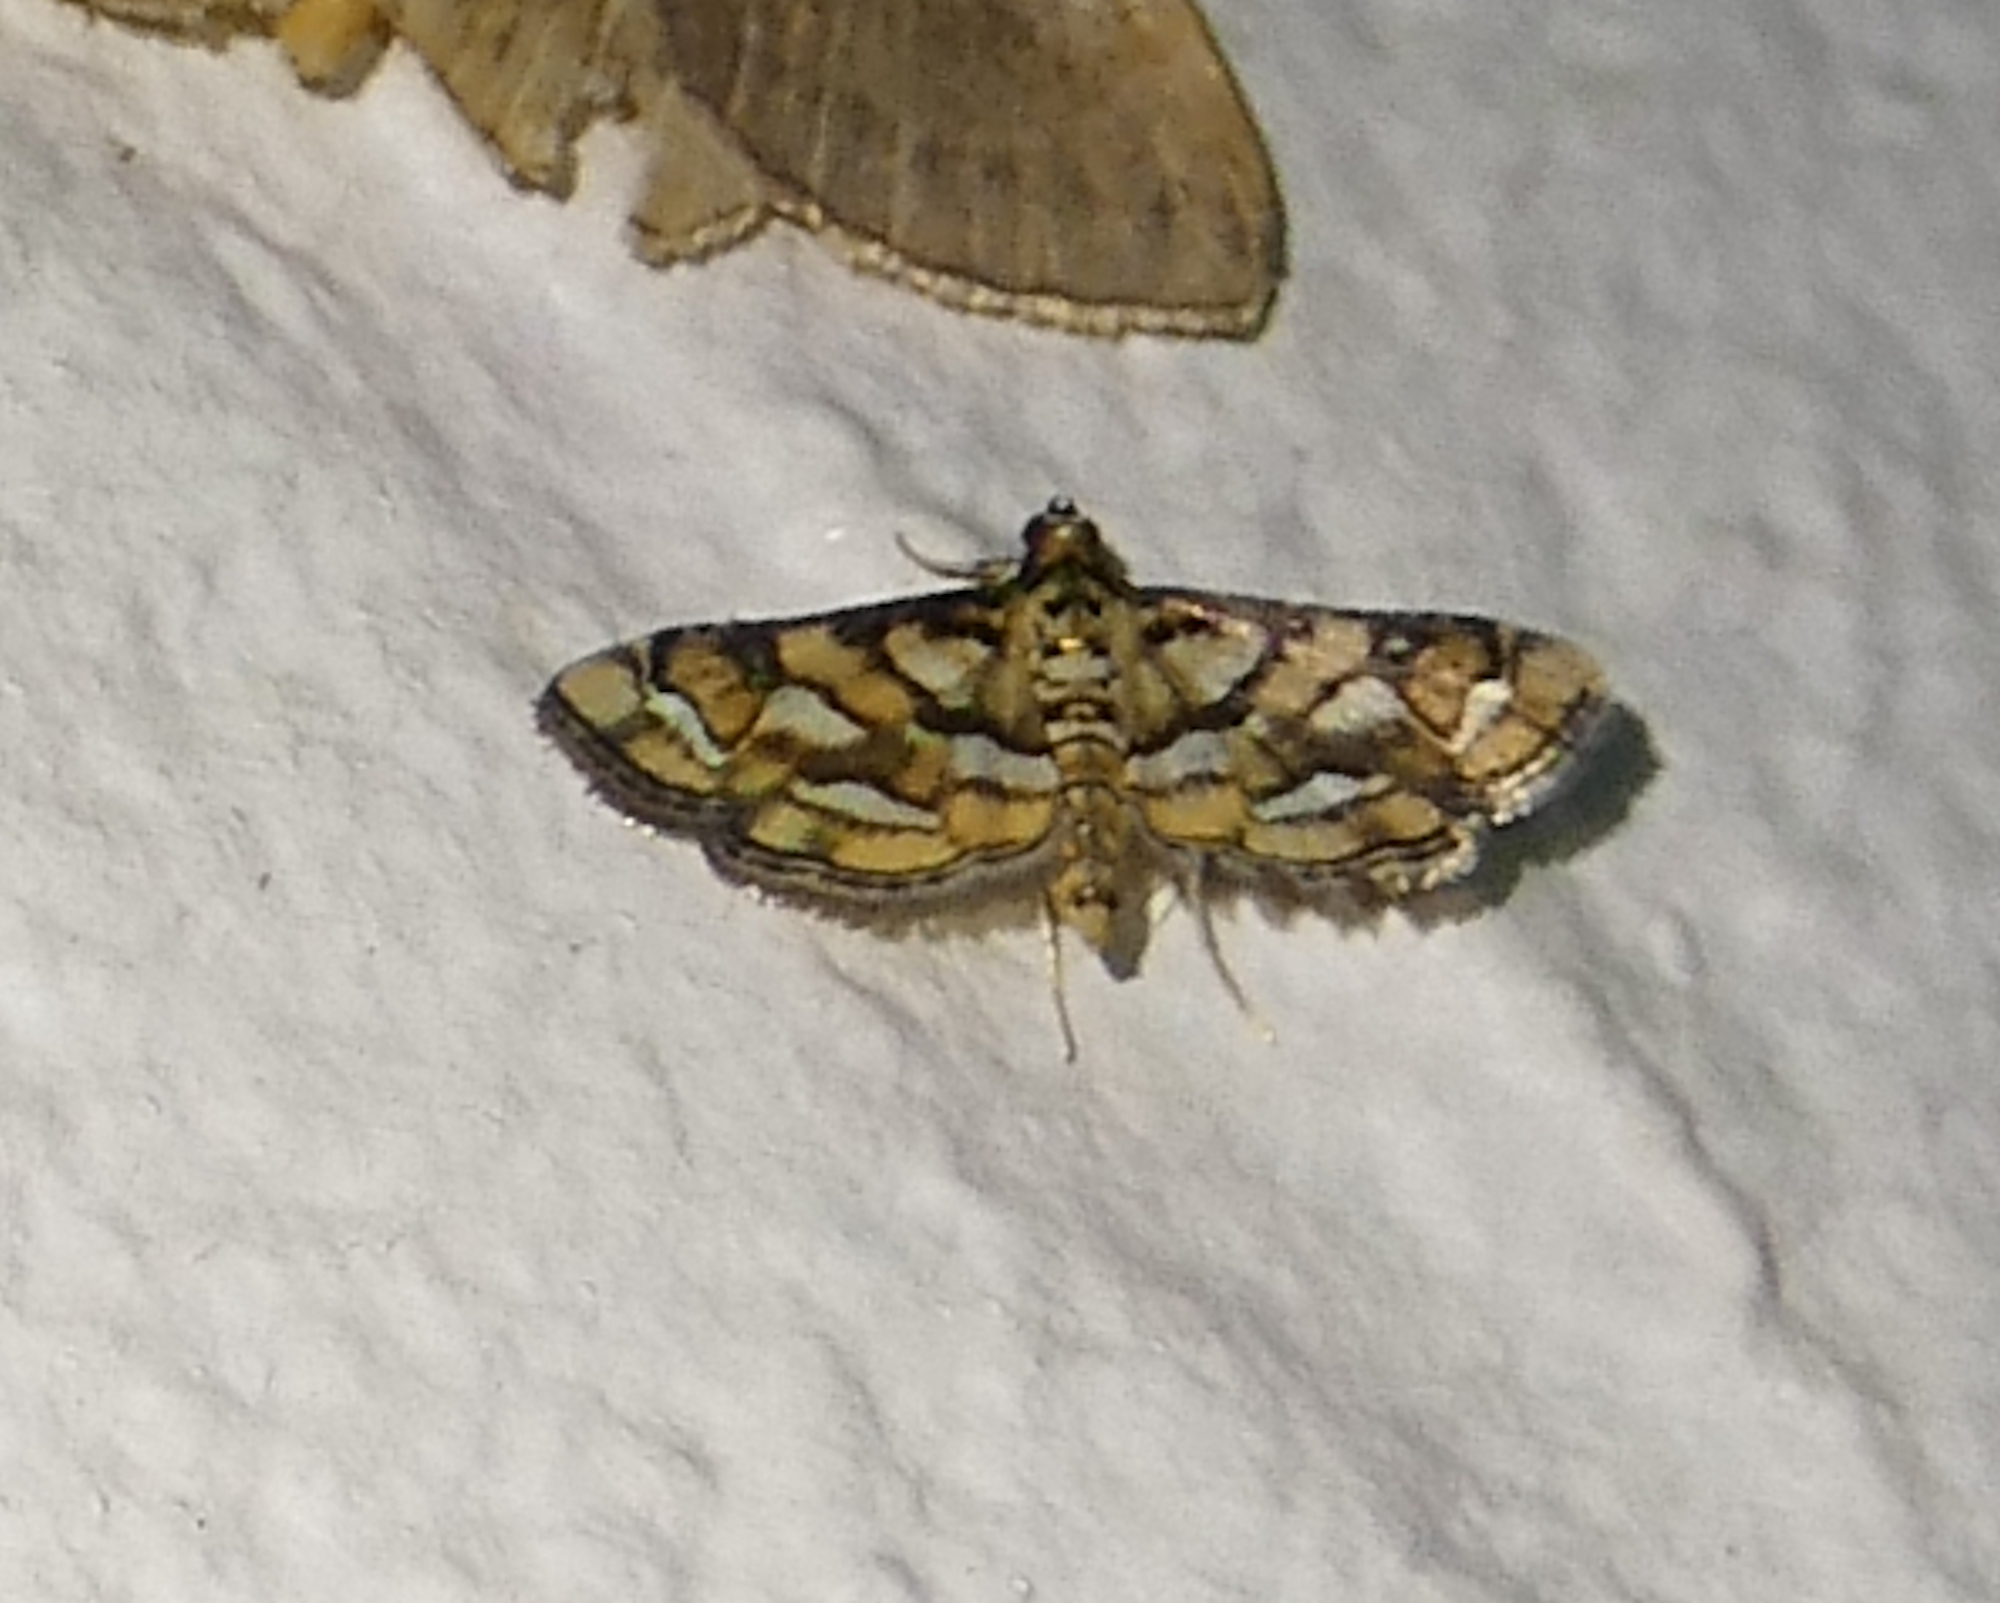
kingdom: Animalia
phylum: Arthropoda
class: Insecta
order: Lepidoptera
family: Crambidae
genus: Hileithia
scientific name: Hileithia magualis
